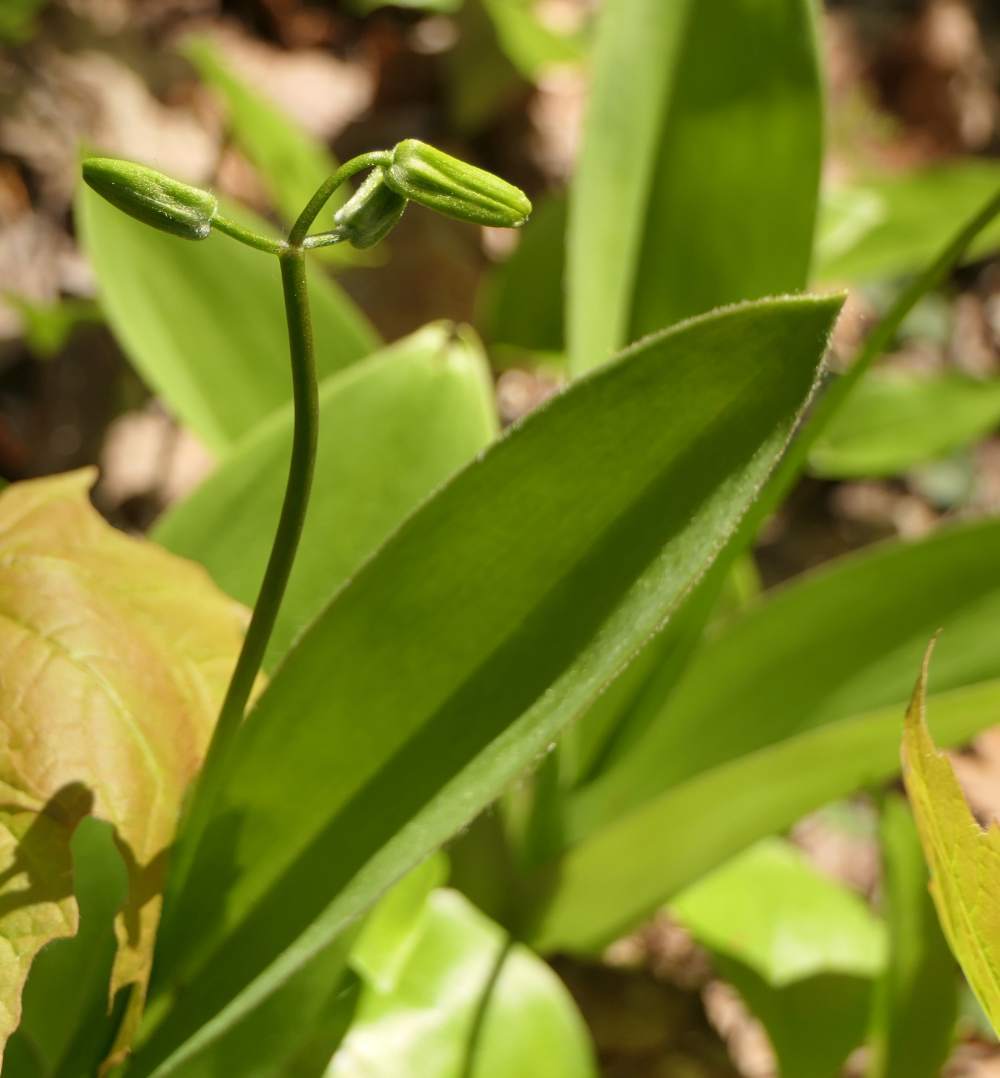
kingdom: Plantae
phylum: Tracheophyta
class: Liliopsida
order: Liliales
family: Liliaceae
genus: Clintonia
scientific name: Clintonia borealis
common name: Yellow clintonia
